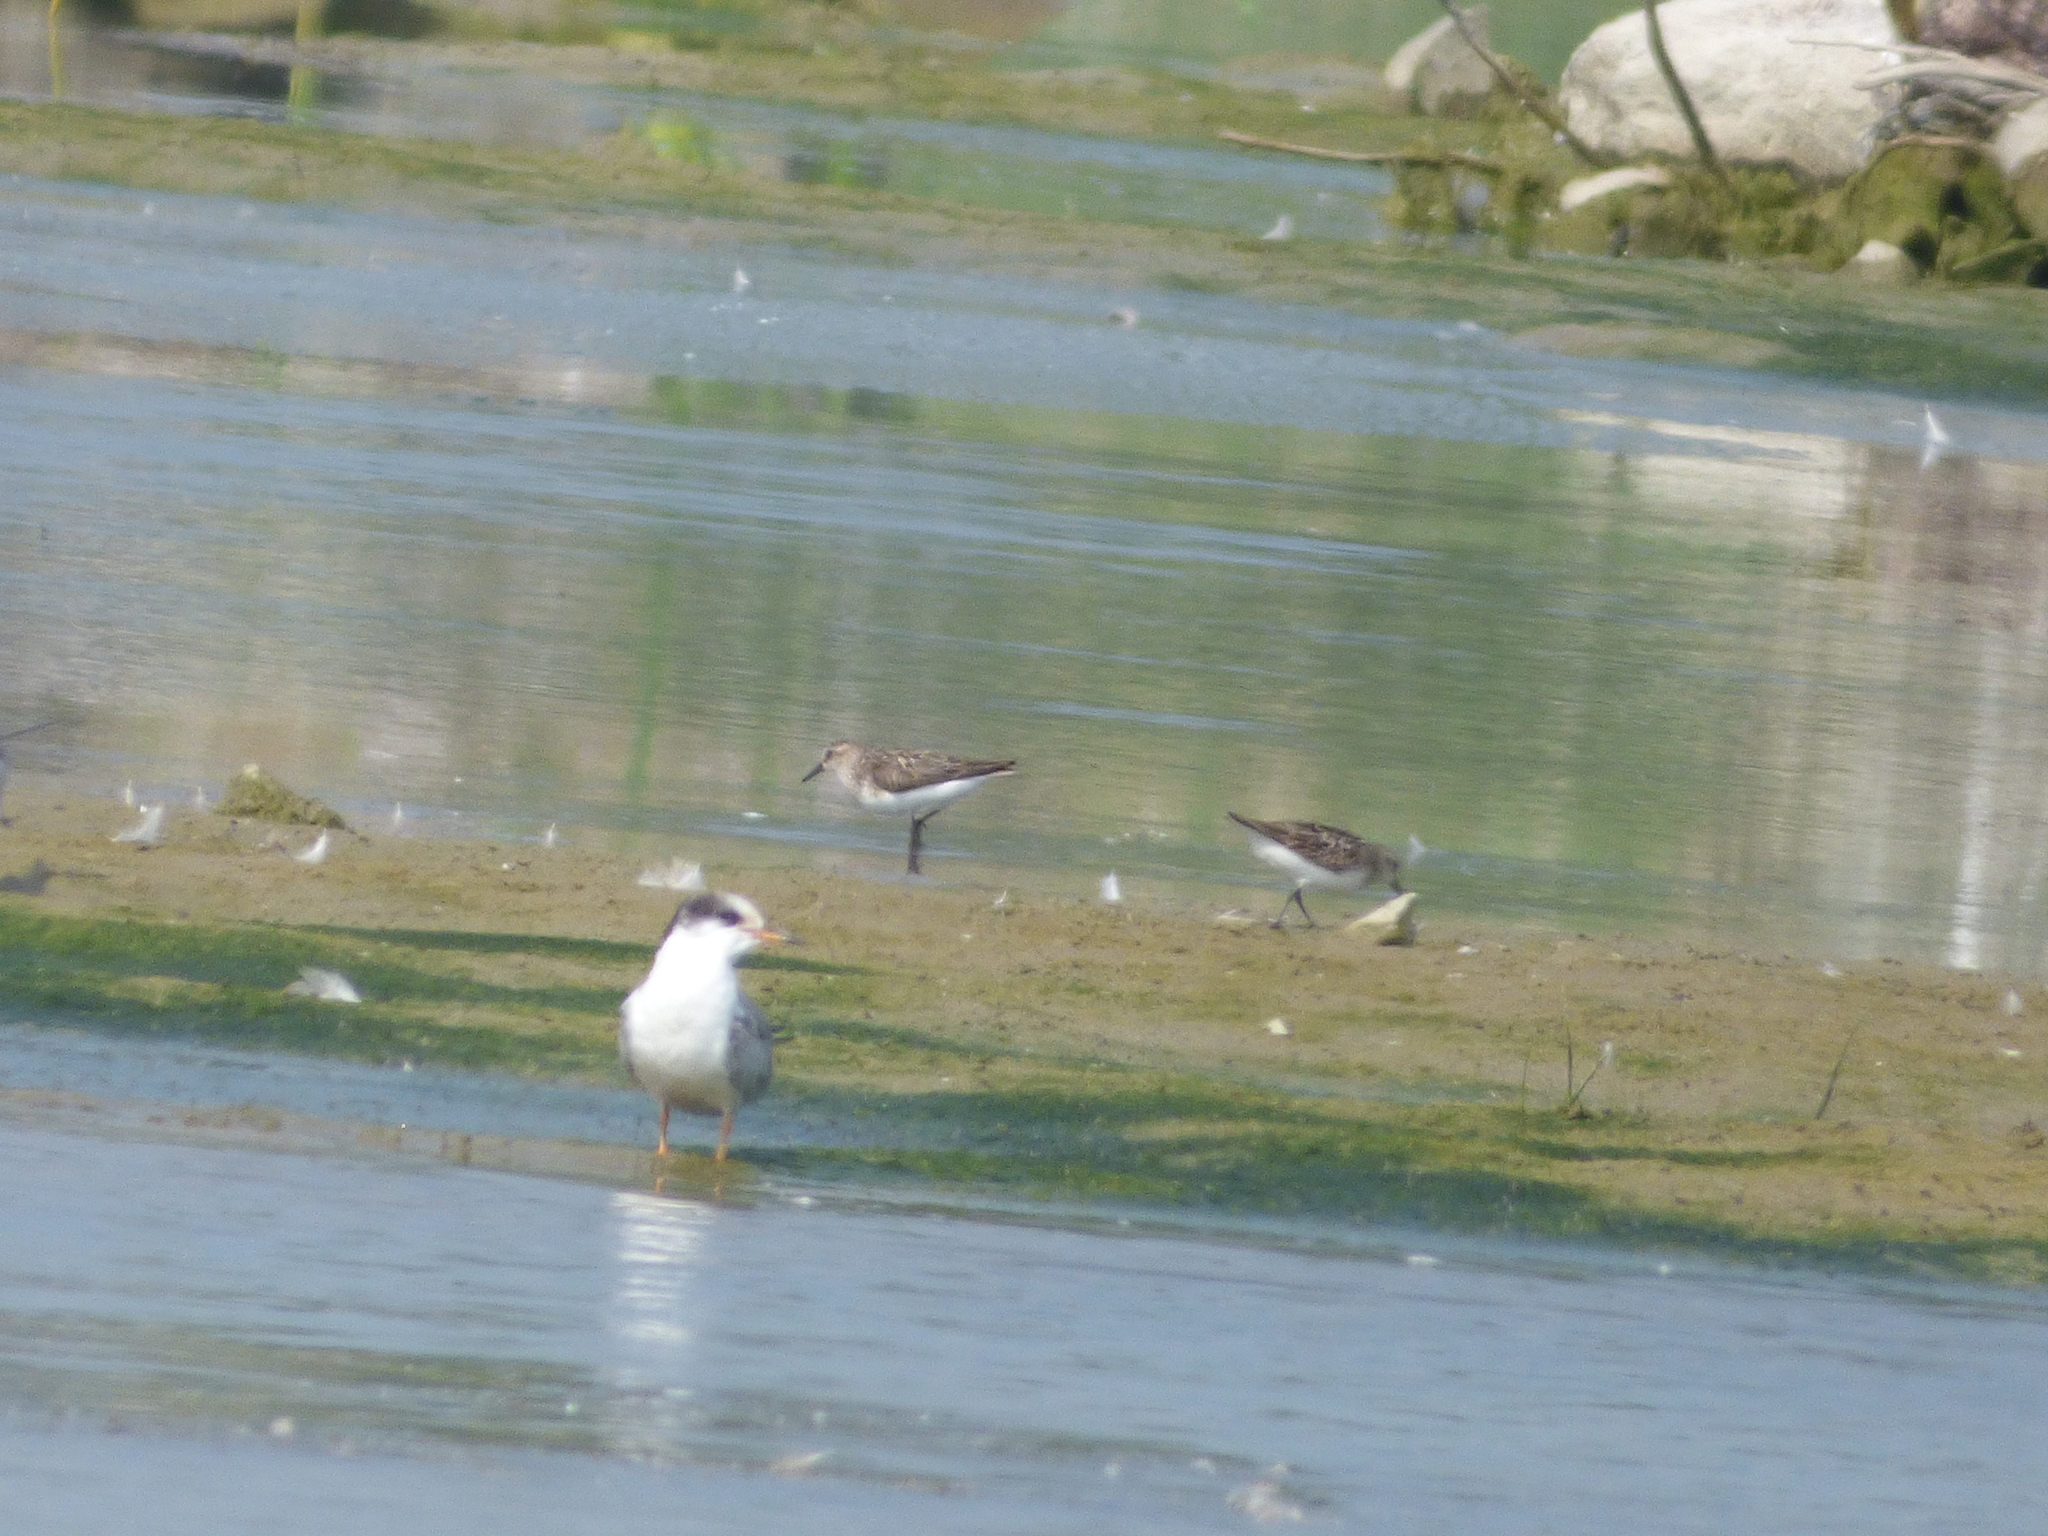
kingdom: Animalia
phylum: Chordata
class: Aves
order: Charadriiformes
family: Scolopacidae
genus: Calidris
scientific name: Calidris pusilla
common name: Semipalmated sandpiper
